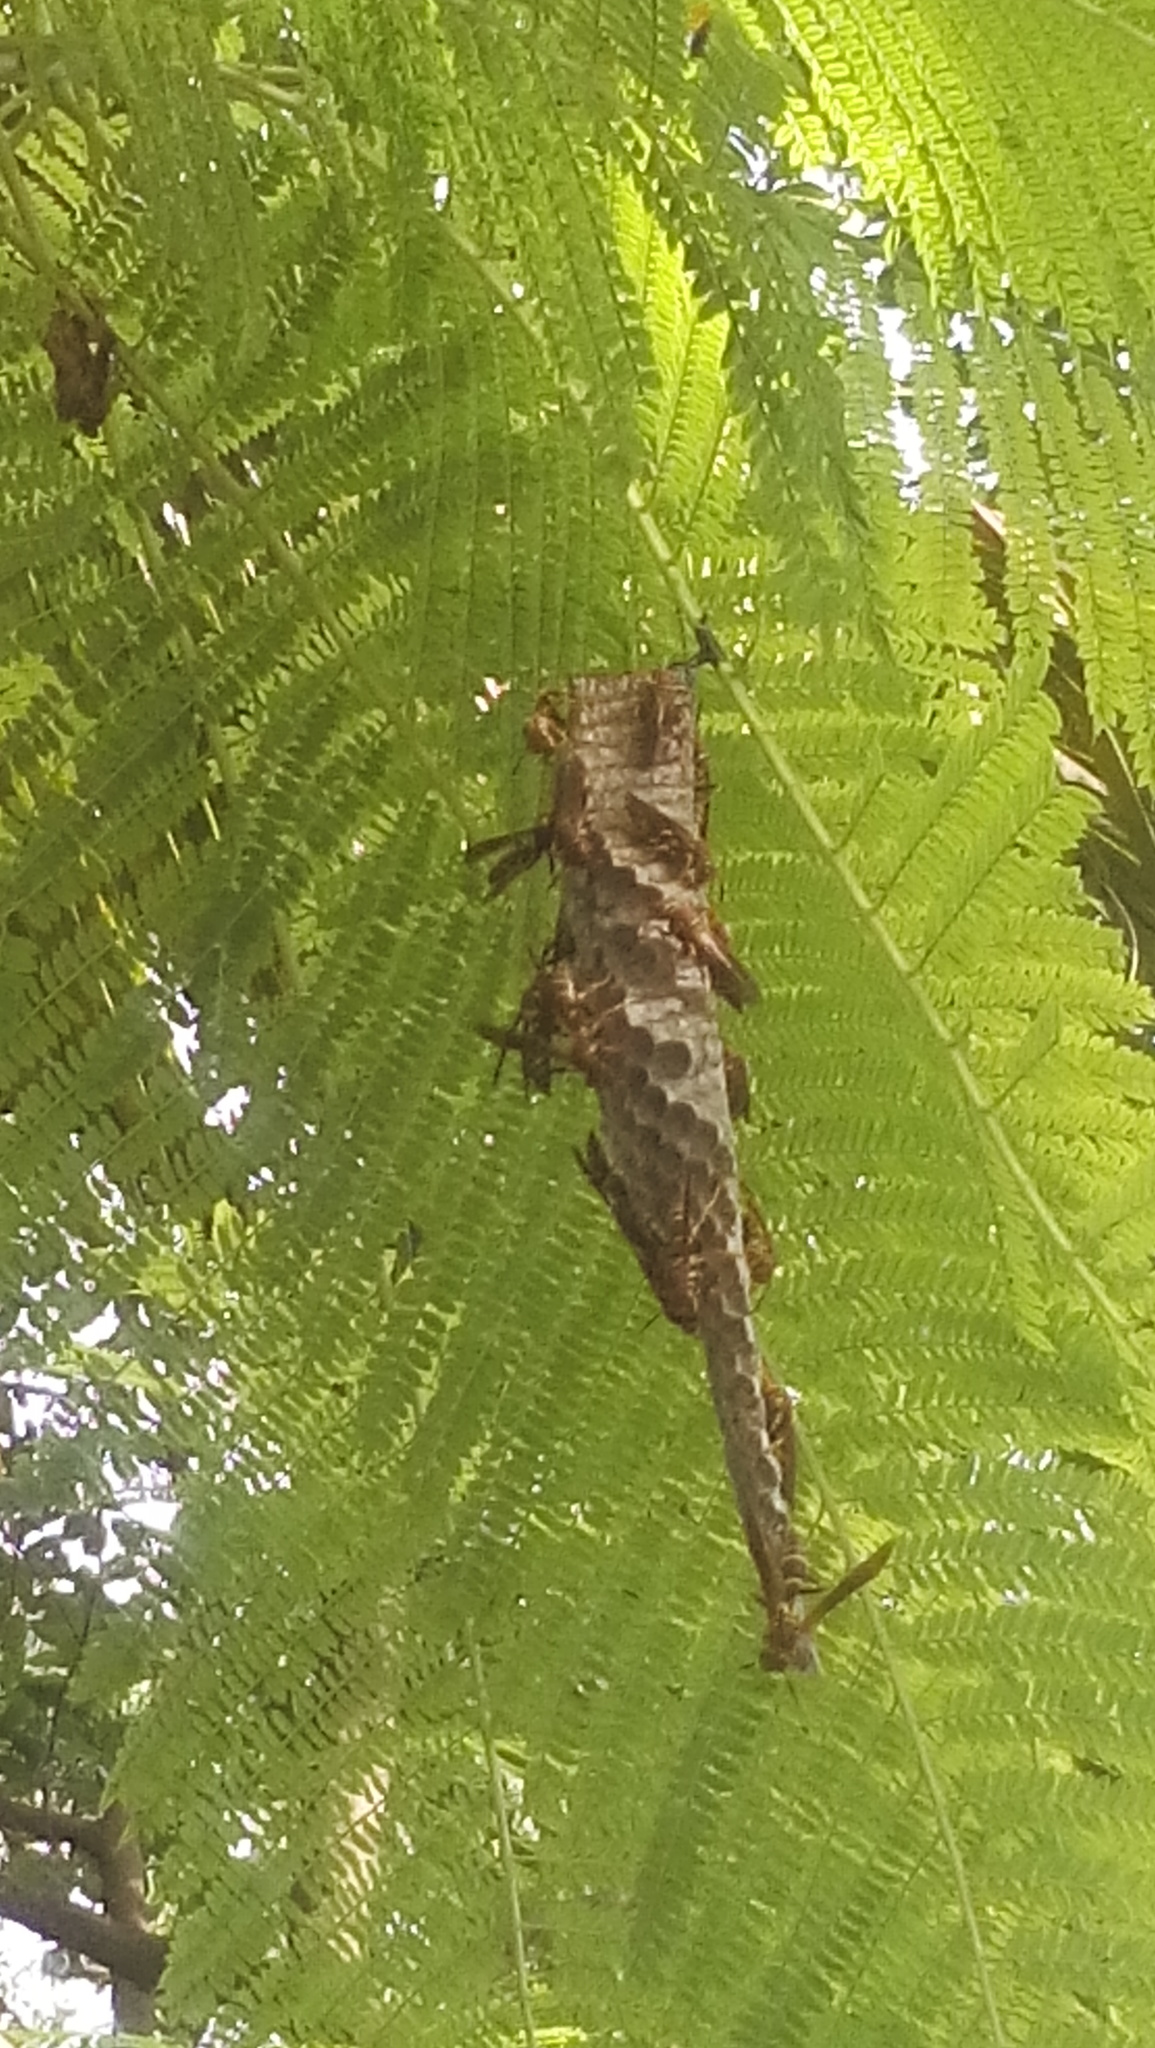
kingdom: Animalia
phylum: Arthropoda
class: Insecta
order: Hymenoptera
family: Eumenidae
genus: Polistes
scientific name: Polistes instabilis
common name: Unstable paper wasp
